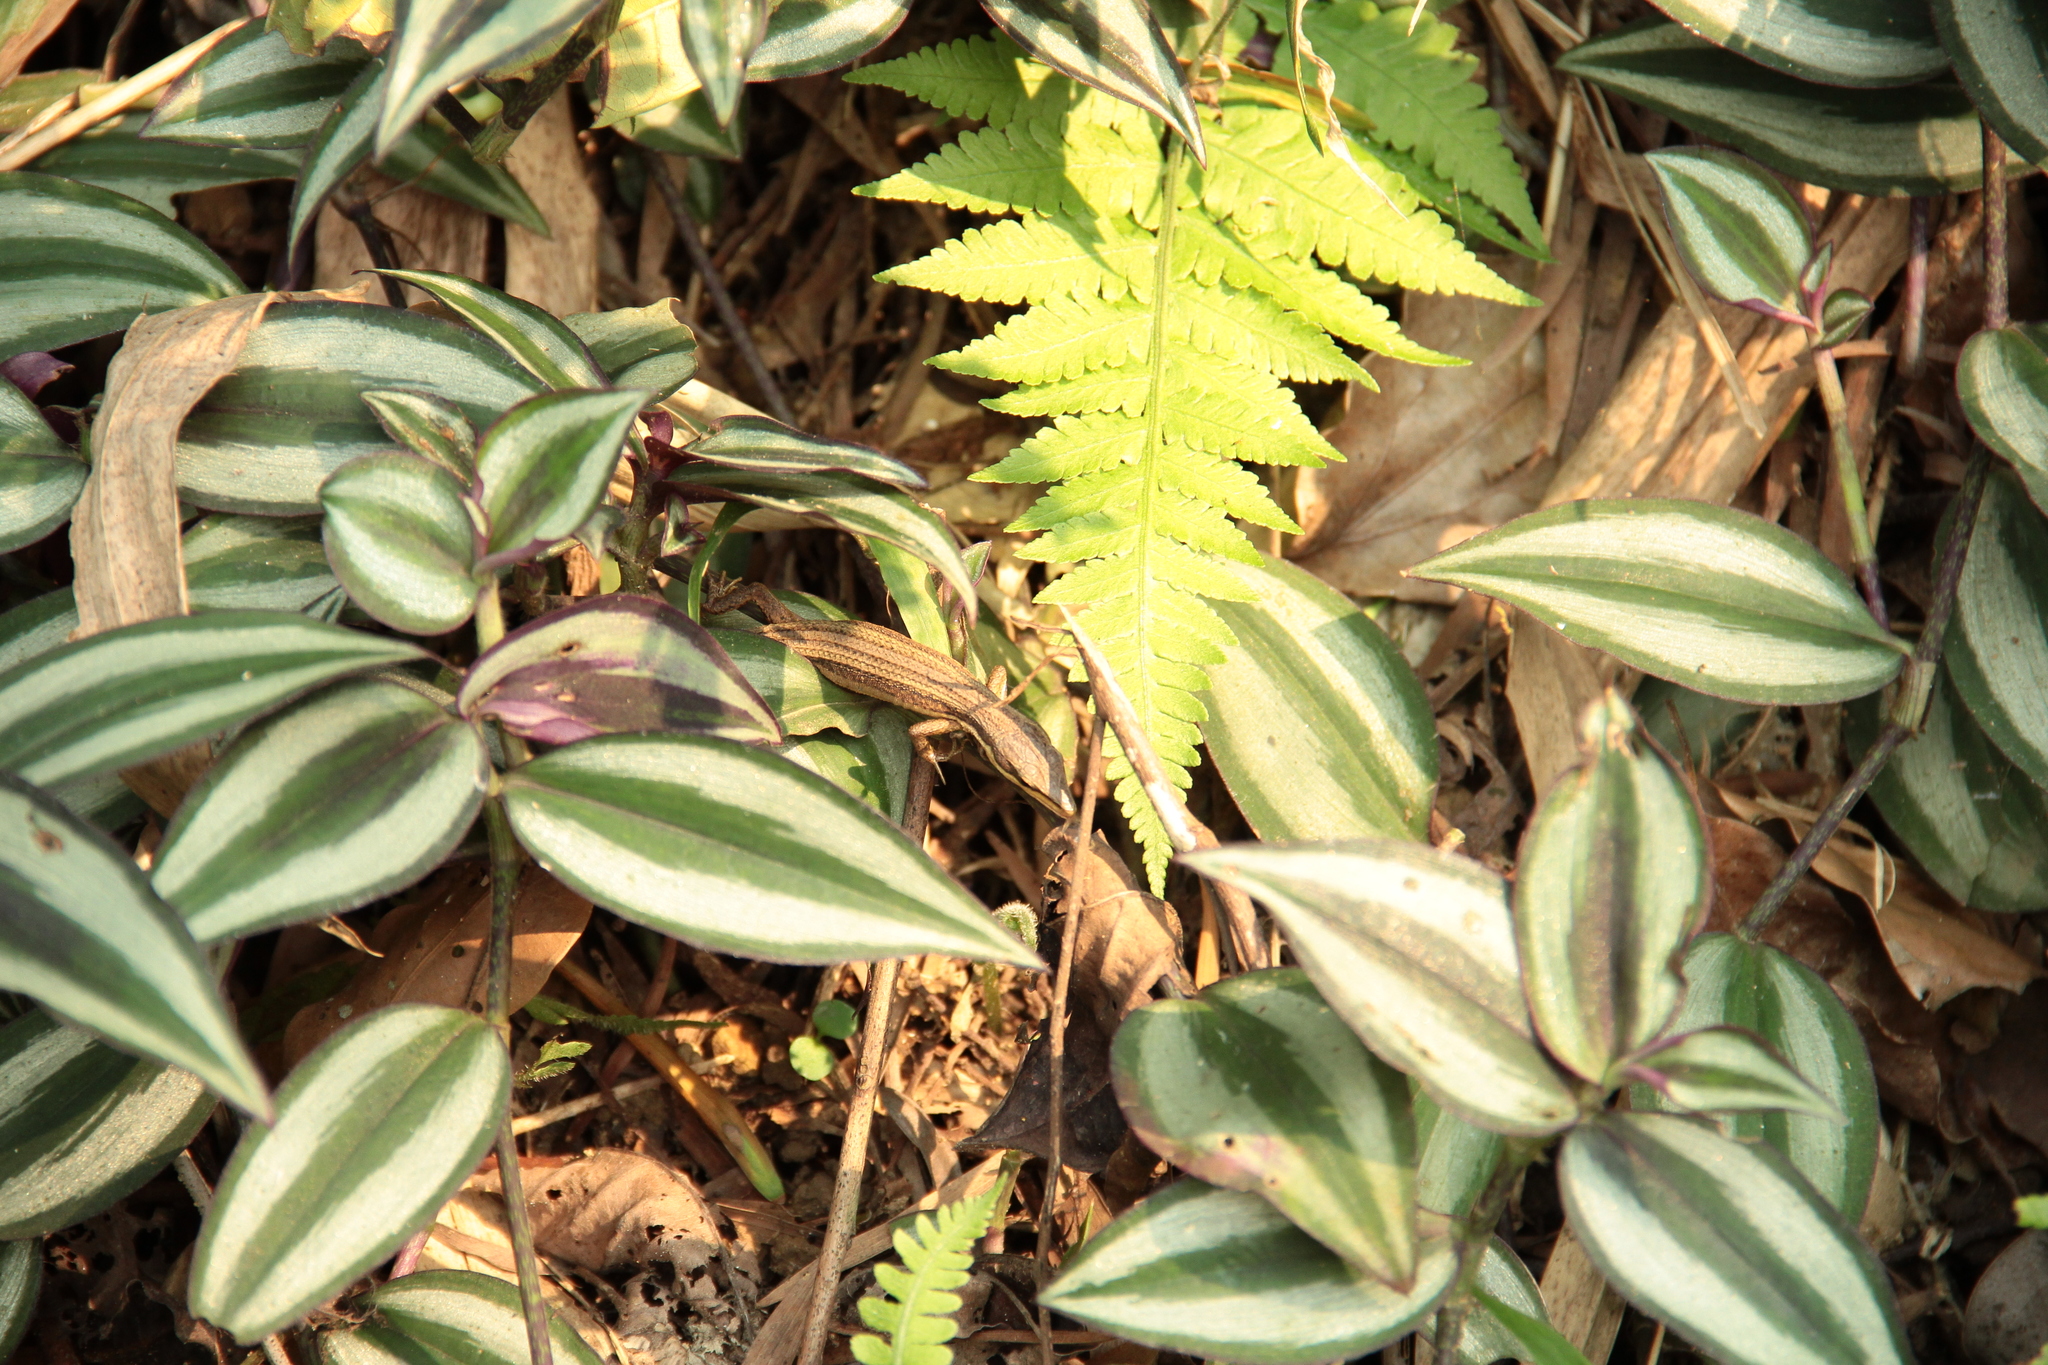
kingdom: Animalia
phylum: Chordata
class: Squamata
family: Lacertidae
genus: Takydromus
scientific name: Takydromus kuehnei
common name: Kuhne’s grass lizard
